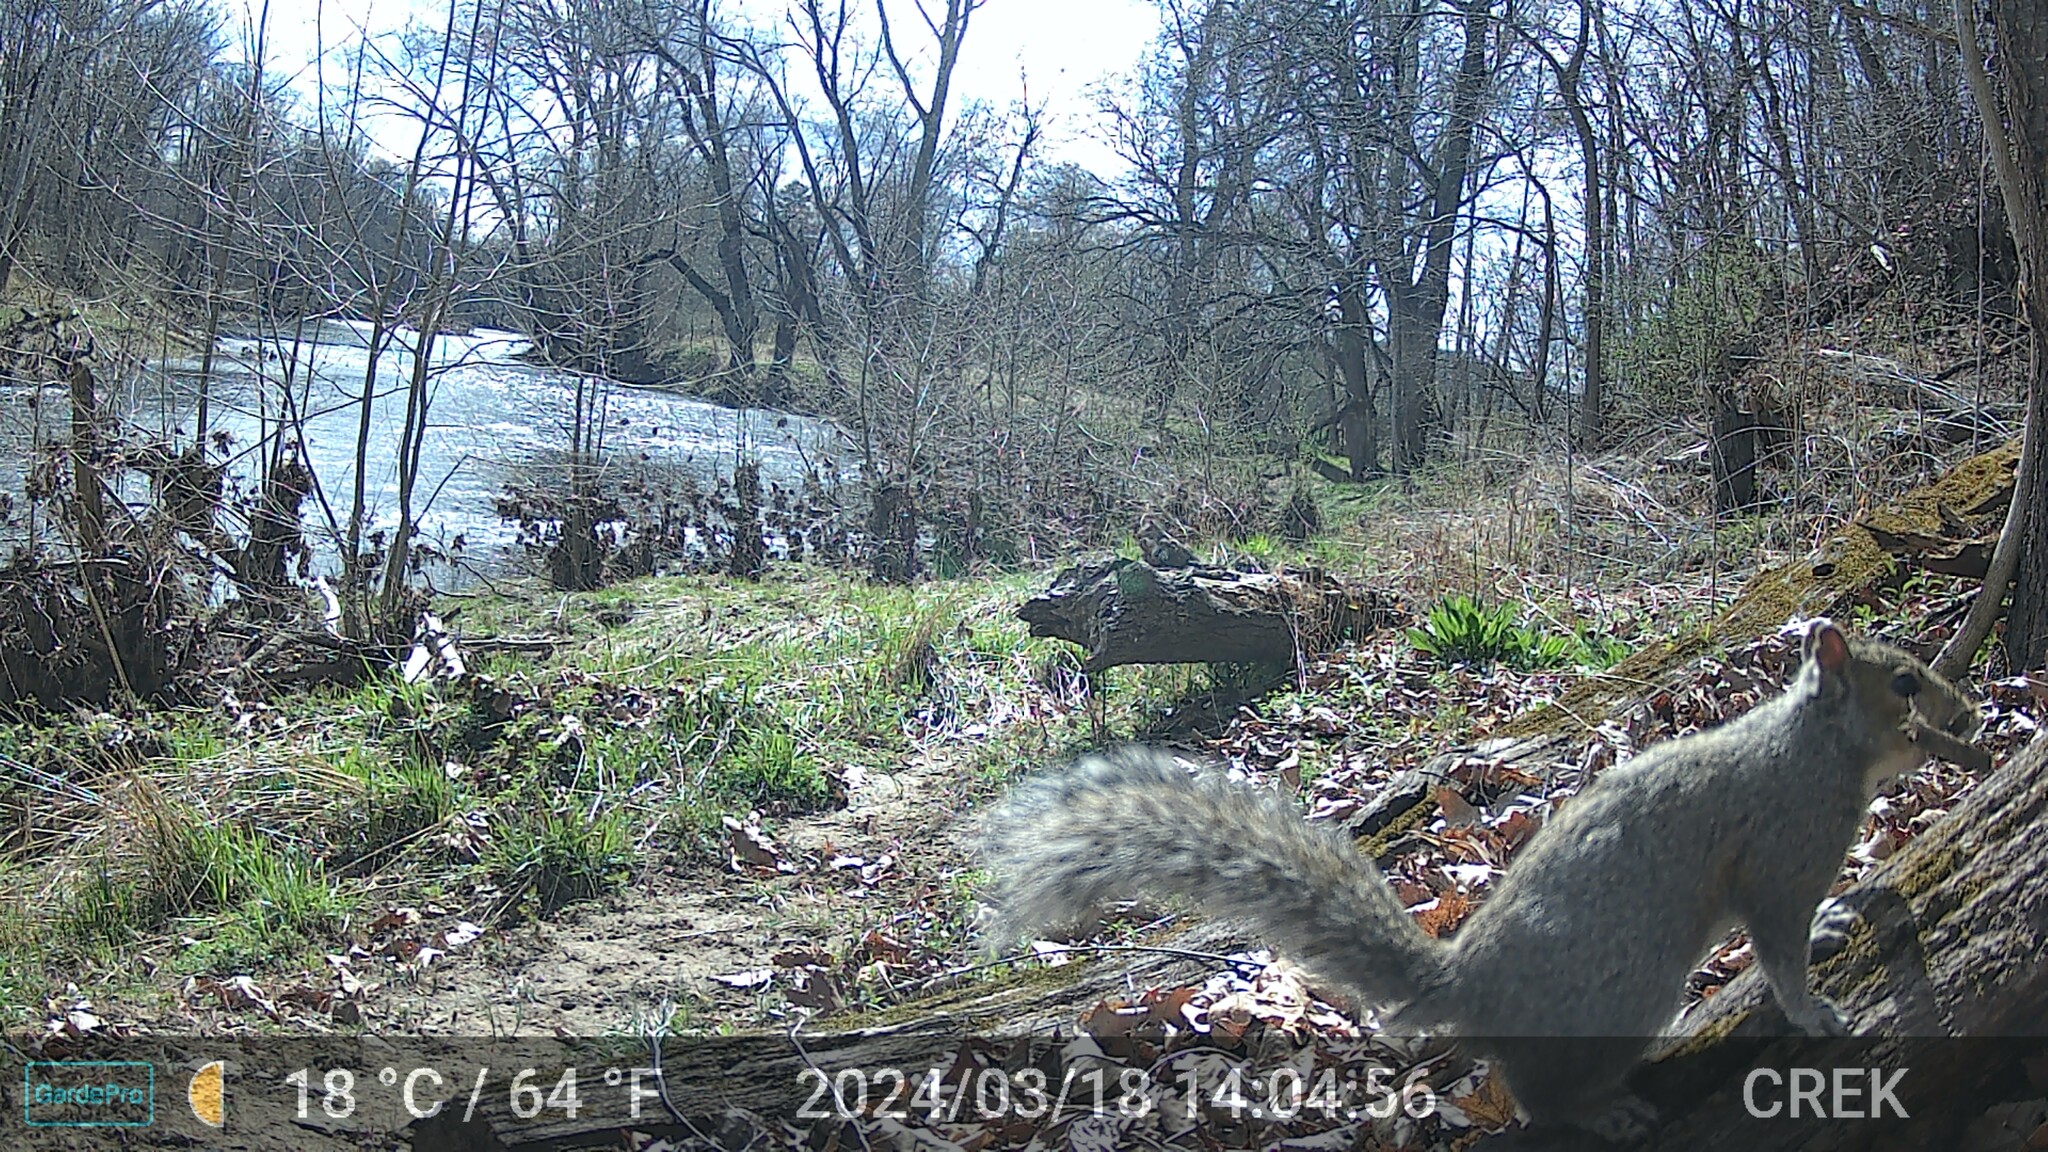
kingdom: Animalia
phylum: Chordata
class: Mammalia
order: Rodentia
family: Sciuridae
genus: Sciurus
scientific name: Sciurus carolinensis
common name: Eastern gray squirrel
